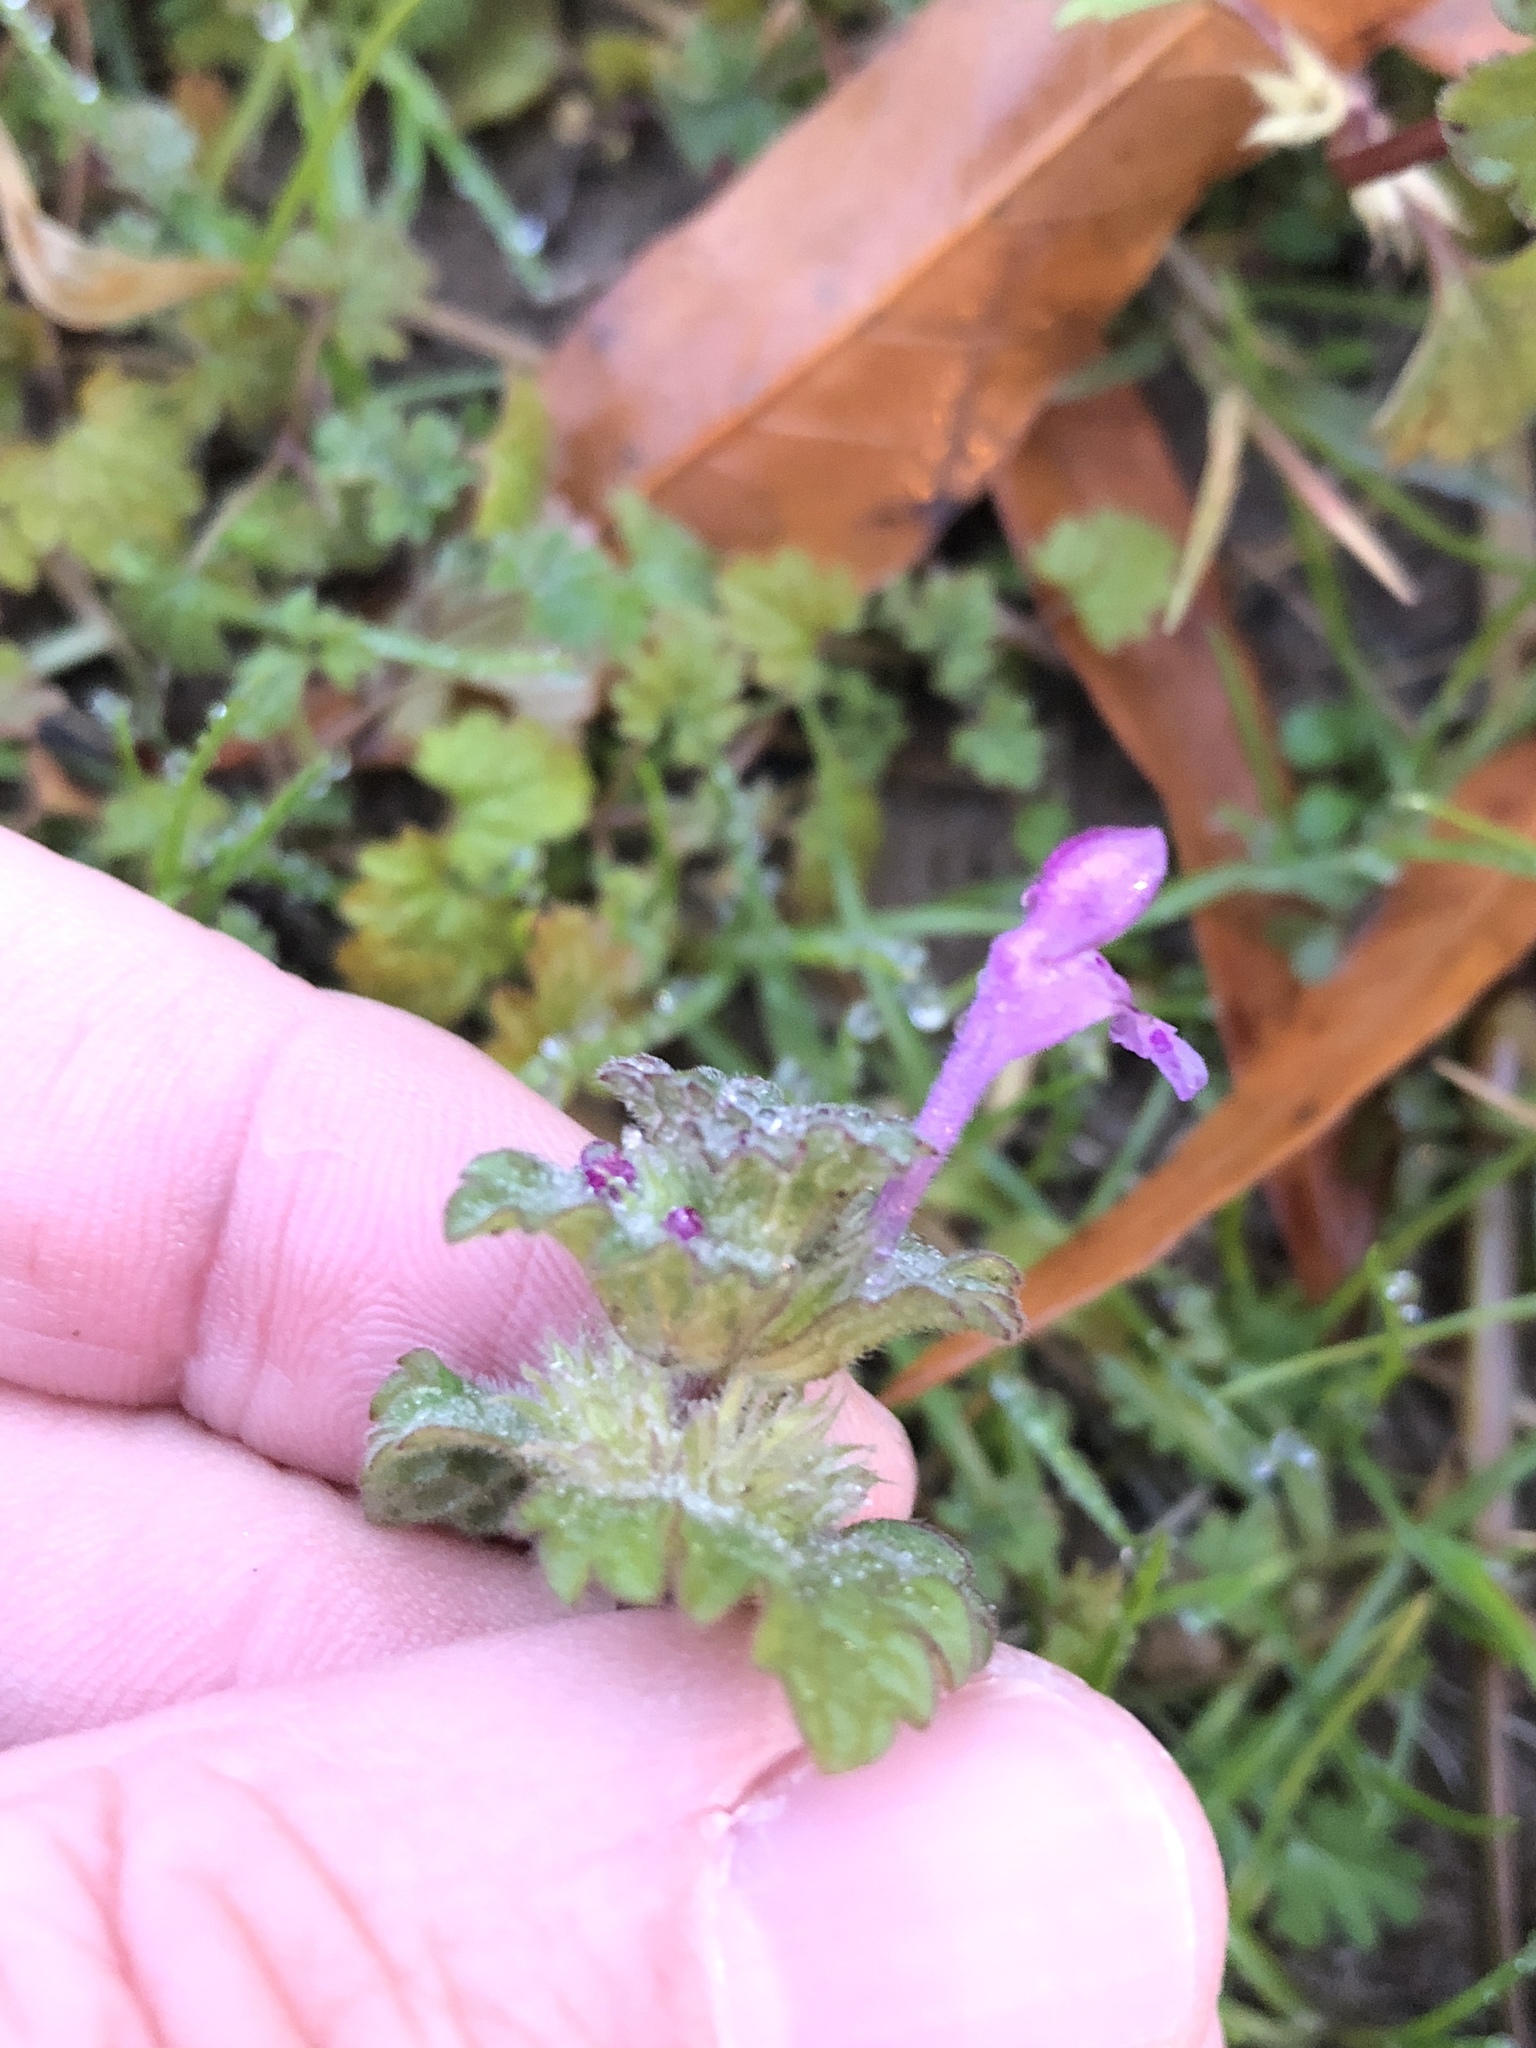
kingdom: Plantae
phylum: Tracheophyta
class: Magnoliopsida
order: Lamiales
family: Lamiaceae
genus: Lamium
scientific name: Lamium amplexicaule
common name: Henbit dead-nettle
